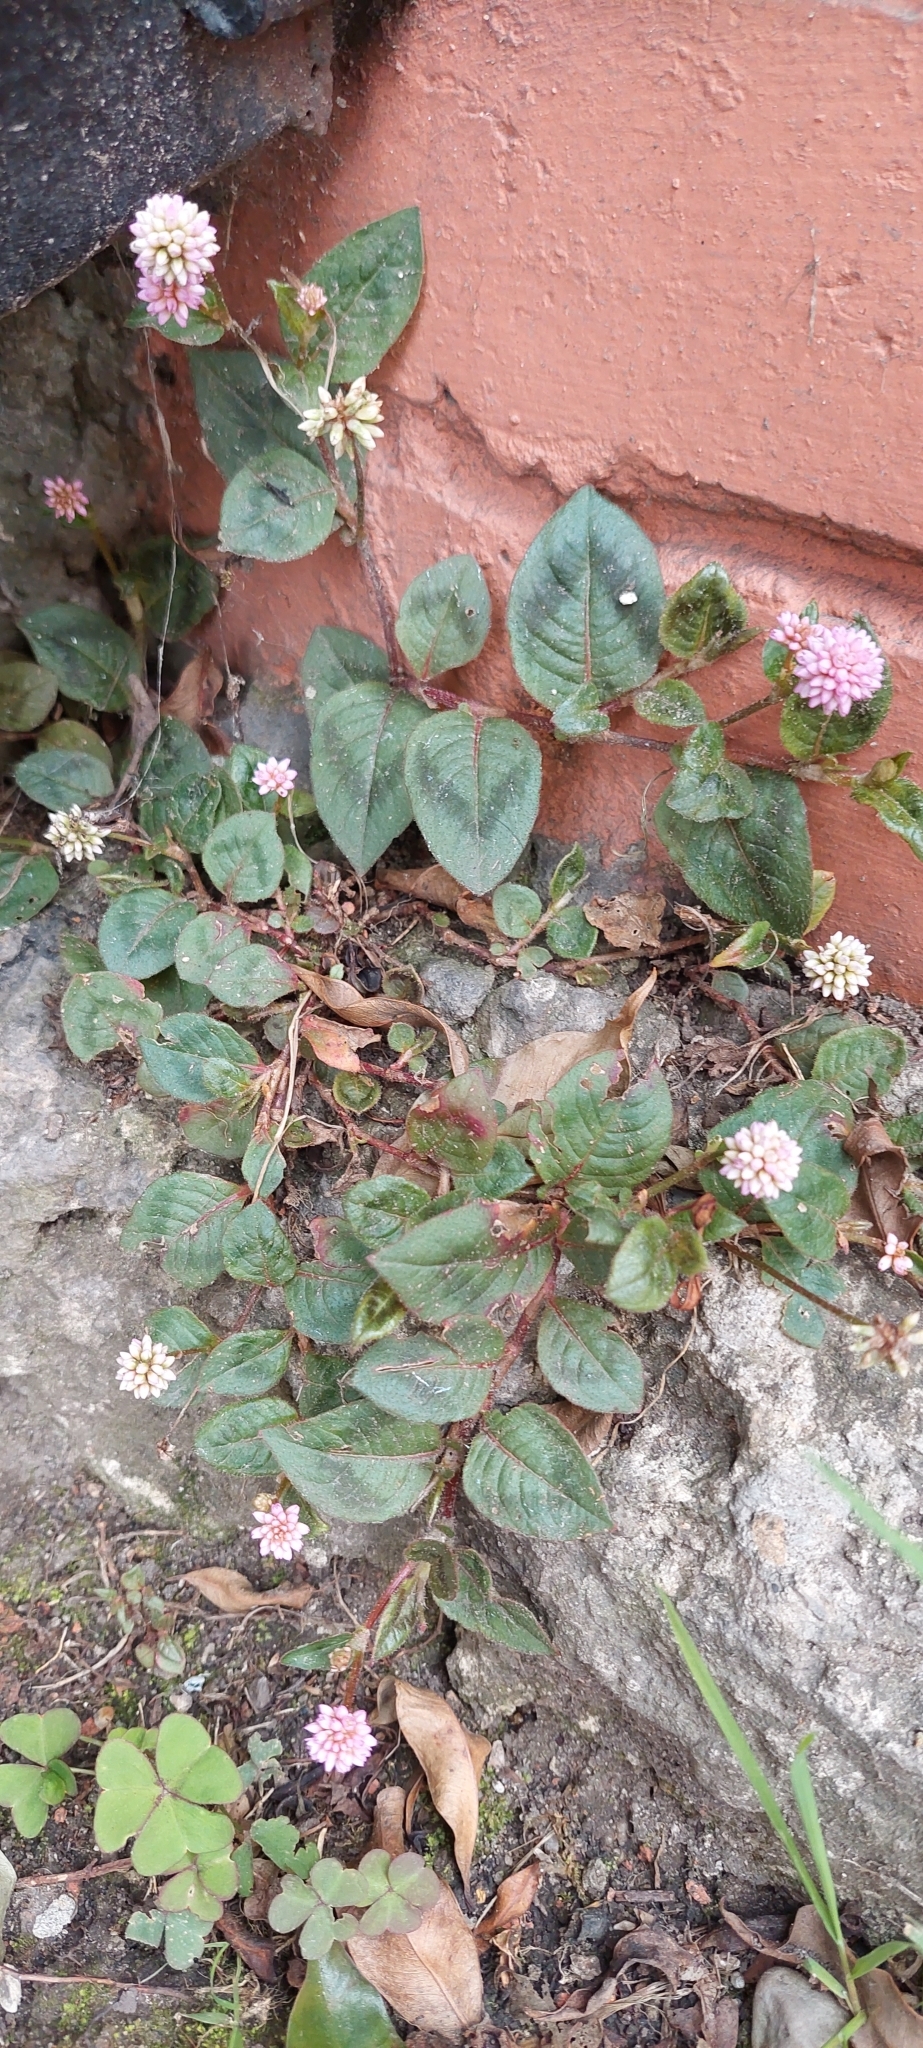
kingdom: Plantae
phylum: Tracheophyta
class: Magnoliopsida
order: Caryophyllales
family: Polygonaceae
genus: Persicaria
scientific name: Persicaria capitata
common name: Pinkhead smartweed
